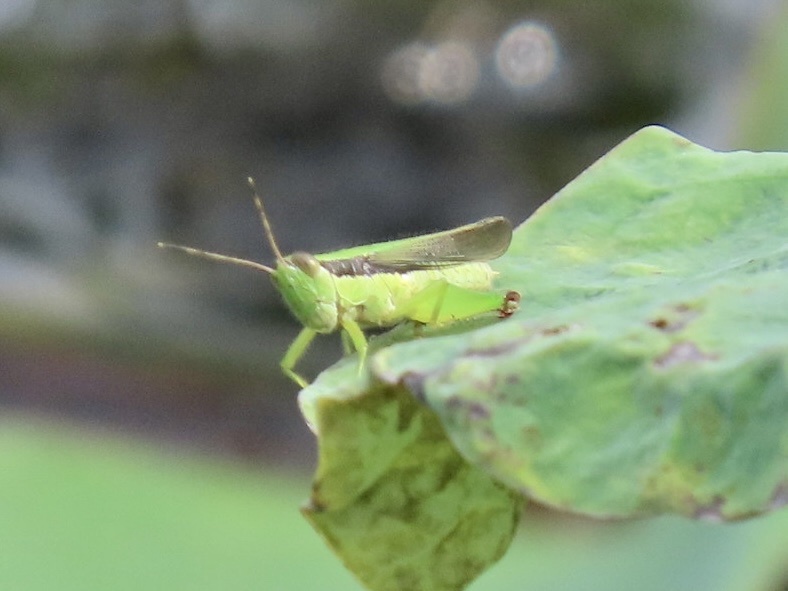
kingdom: Animalia
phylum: Arthropoda
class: Insecta
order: Orthoptera
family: Acrididae
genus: Gesonula
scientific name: Gesonula mundata
